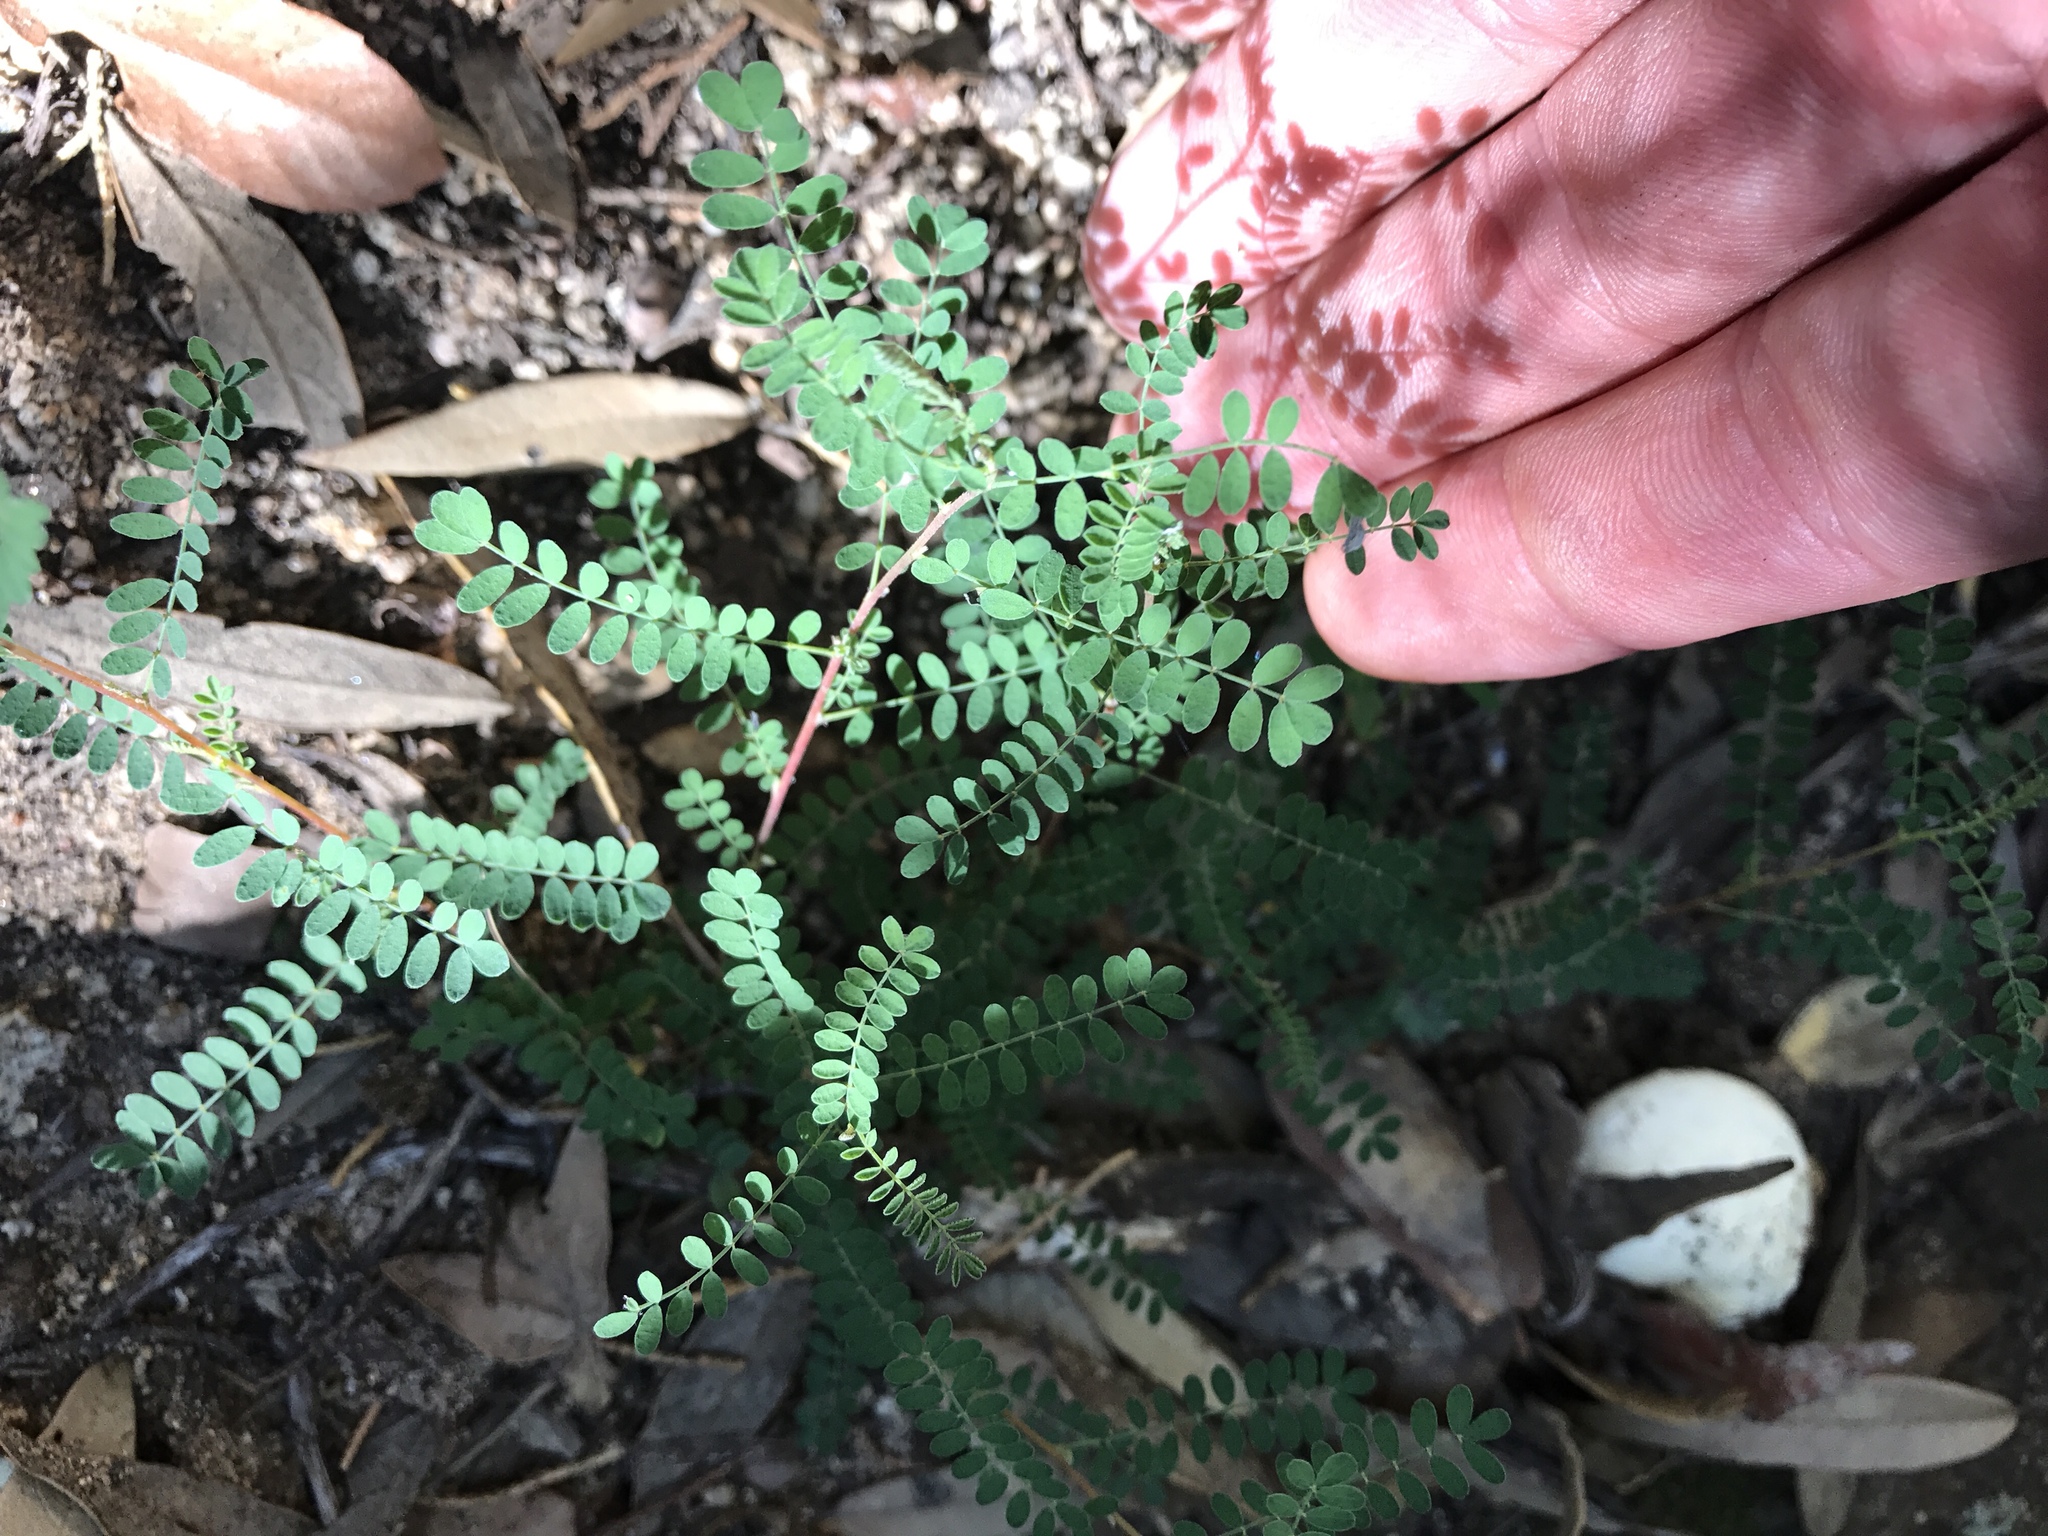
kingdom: Plantae
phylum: Tracheophyta
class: Magnoliopsida
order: Fabales
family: Fabaceae
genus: Marina
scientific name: Marina parryi
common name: Parry's marina
